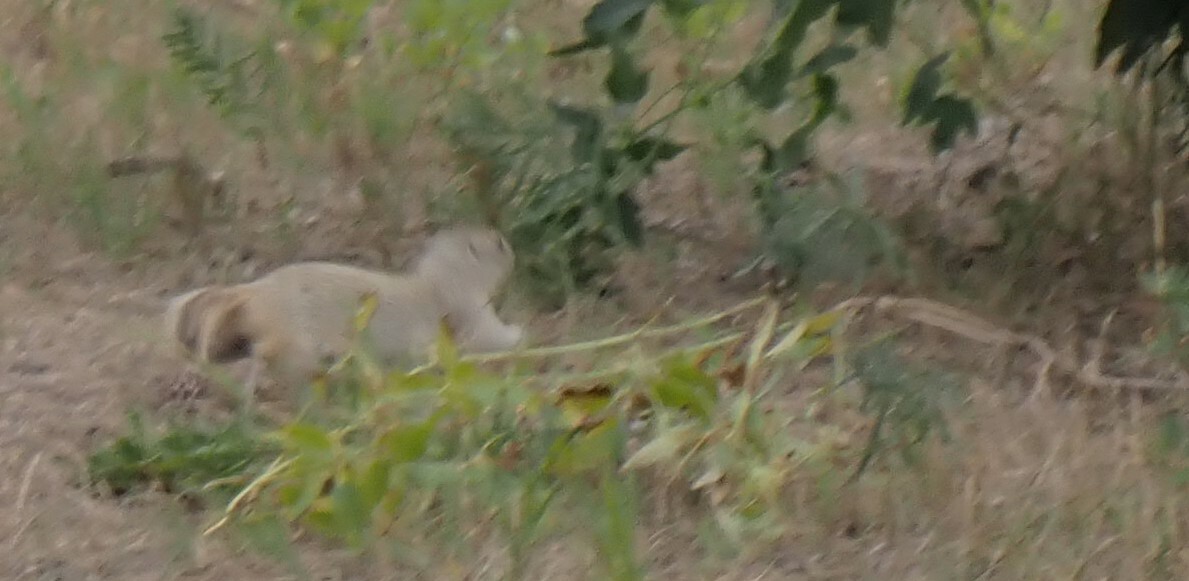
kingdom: Animalia
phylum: Chordata
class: Mammalia
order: Rodentia
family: Sciuridae
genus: Urocitellus
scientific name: Urocitellus richardsonii
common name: Richardson's ground squirrel
